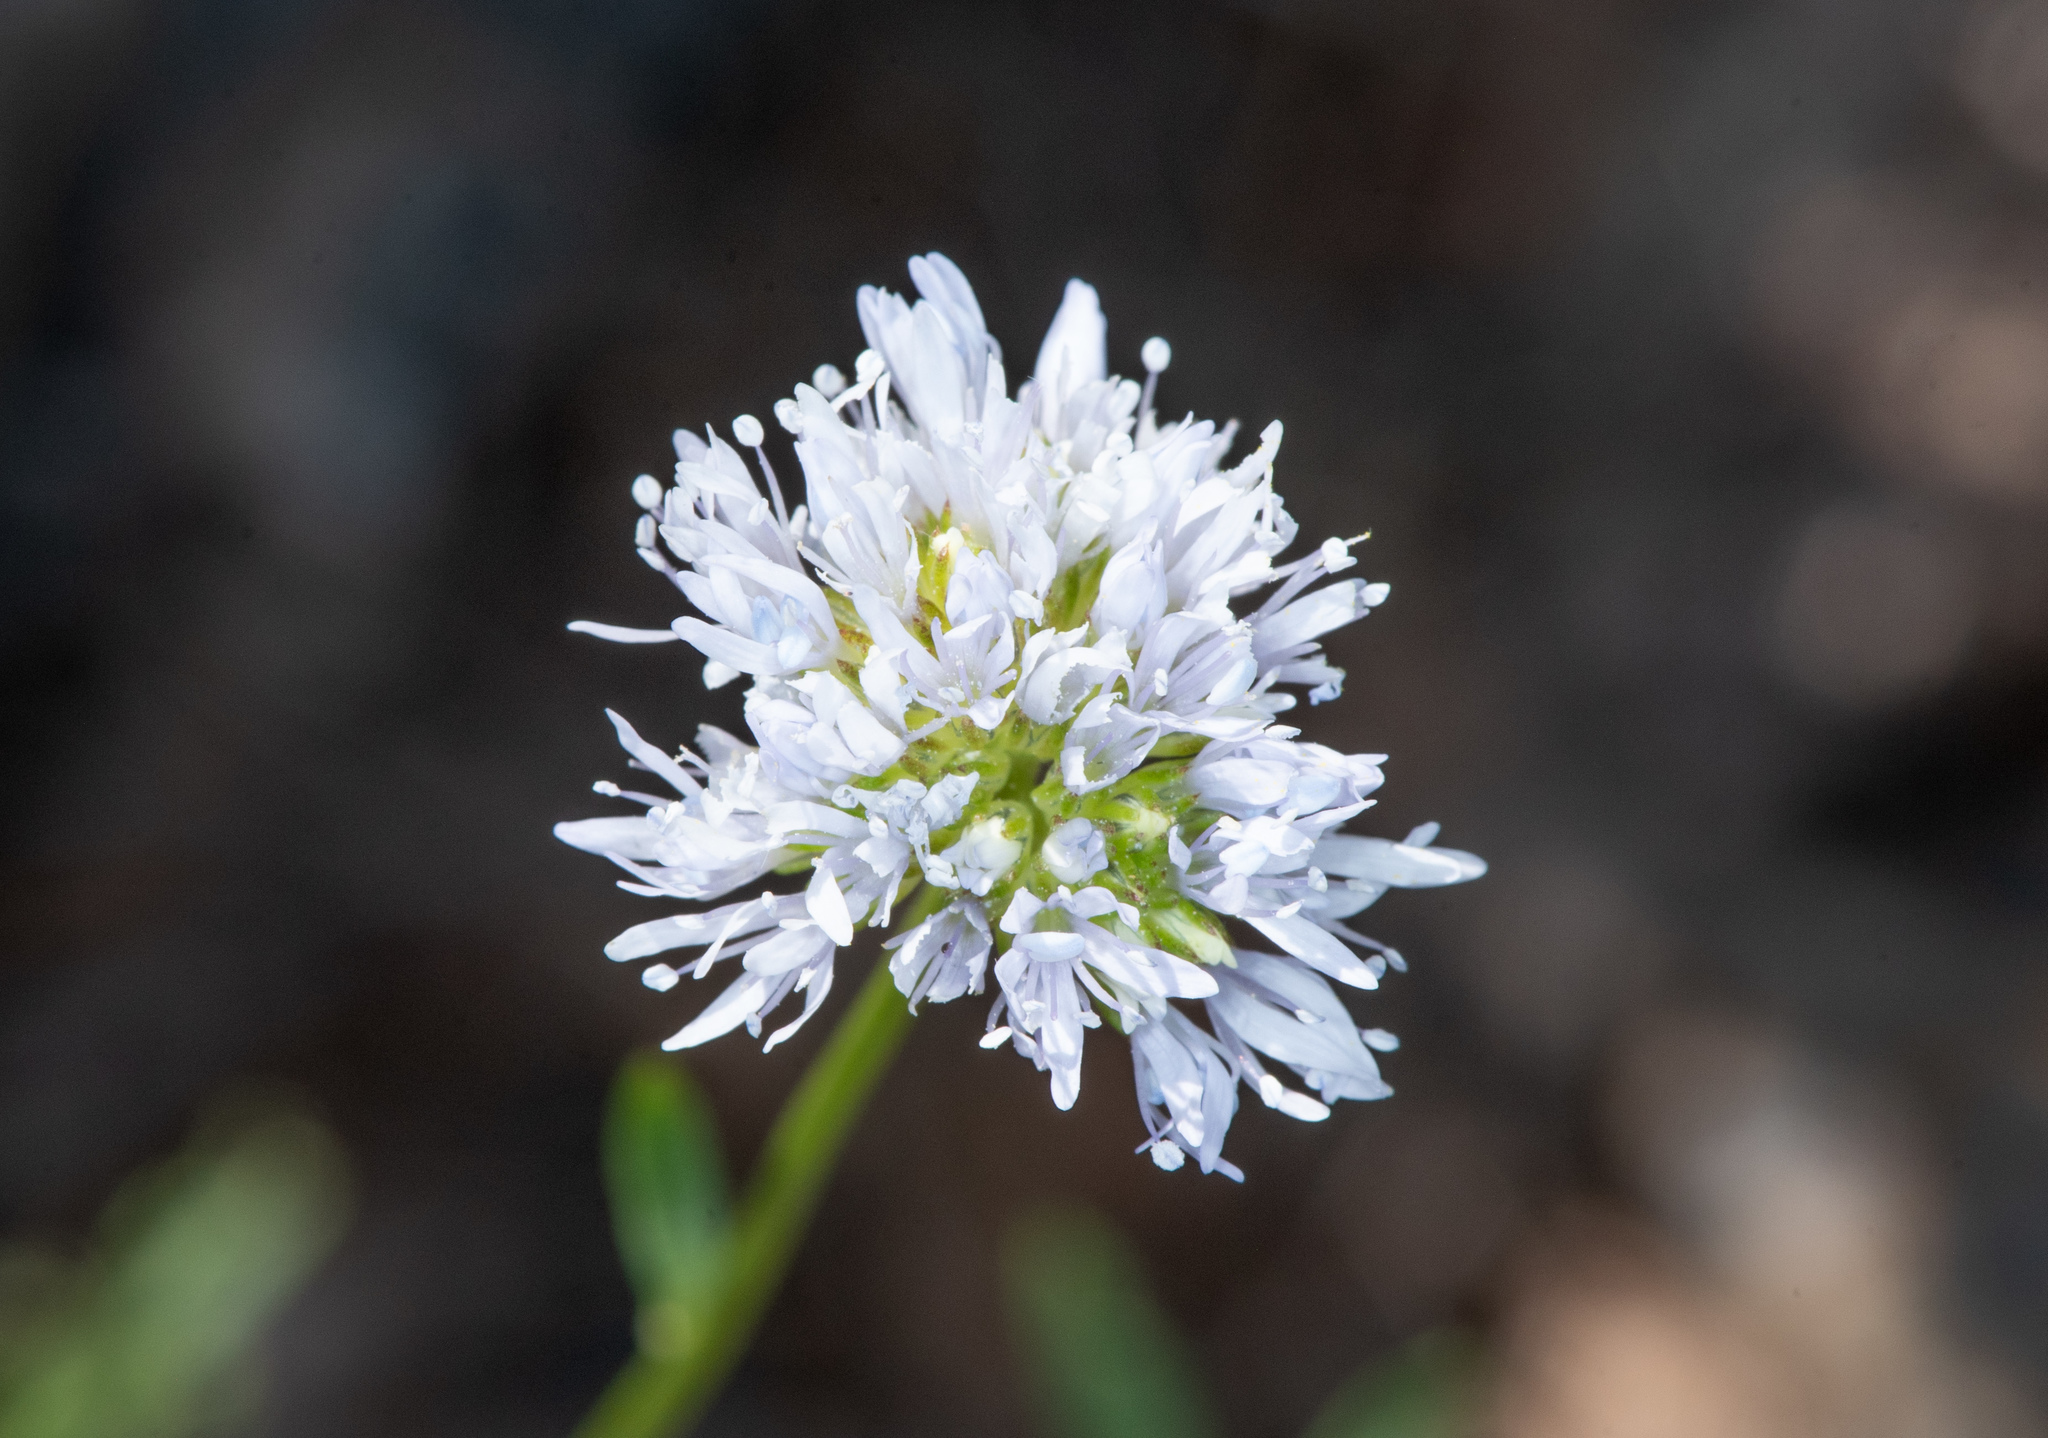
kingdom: Plantae
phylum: Tracheophyta
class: Magnoliopsida
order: Ericales
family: Polemoniaceae
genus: Gilia
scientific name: Gilia capitata
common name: Bluehead gilia
